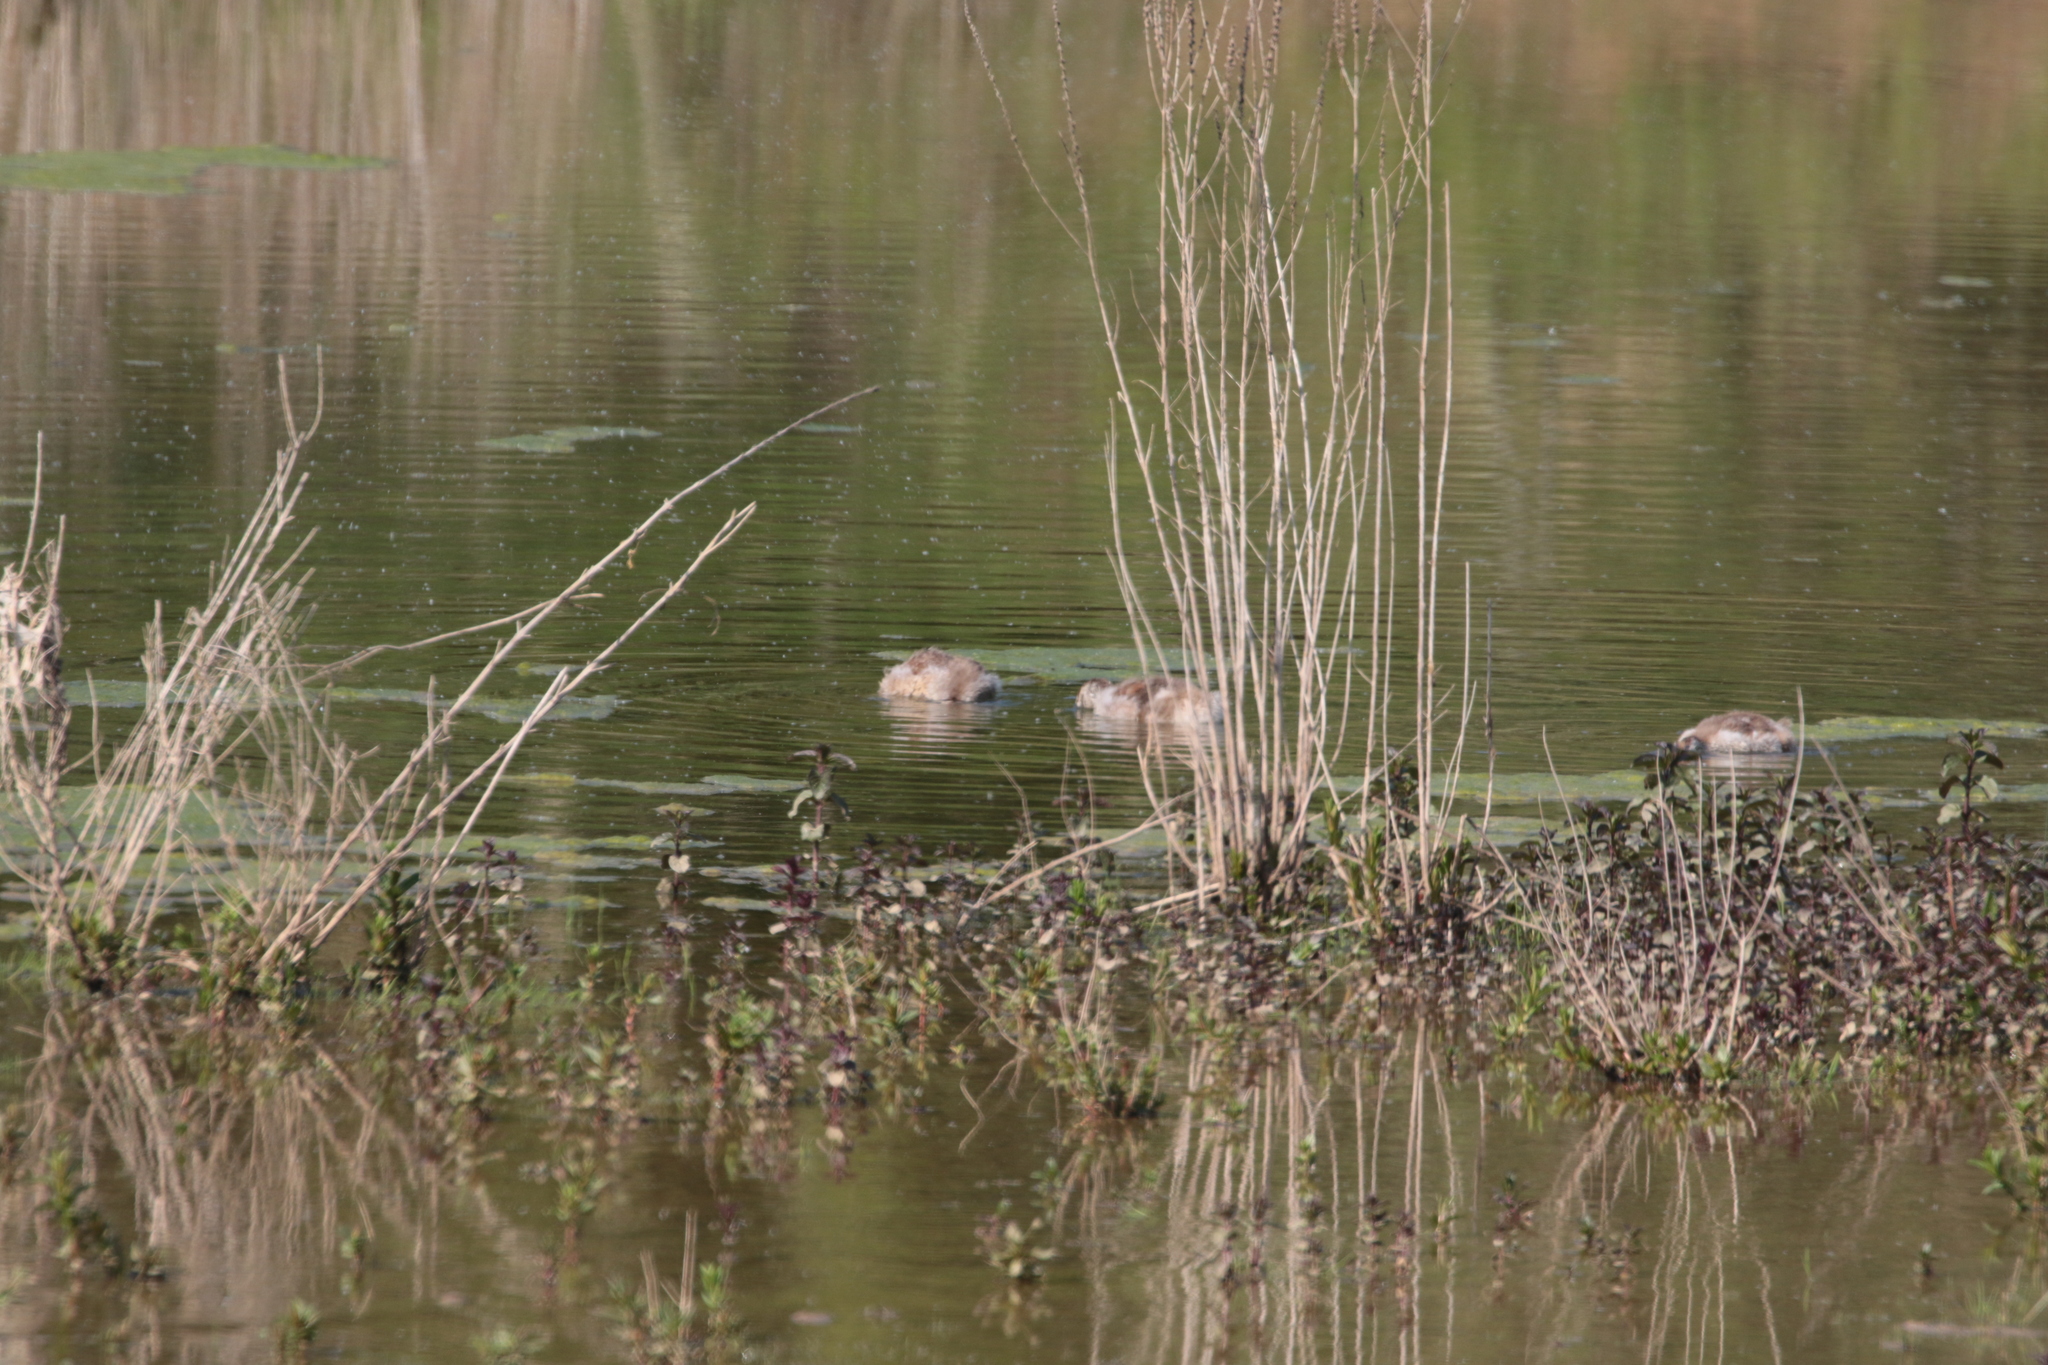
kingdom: Animalia
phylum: Chordata
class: Aves
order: Anseriformes
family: Anatidae
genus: Alopochen
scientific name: Alopochen aegyptiaca
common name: Egyptian goose
